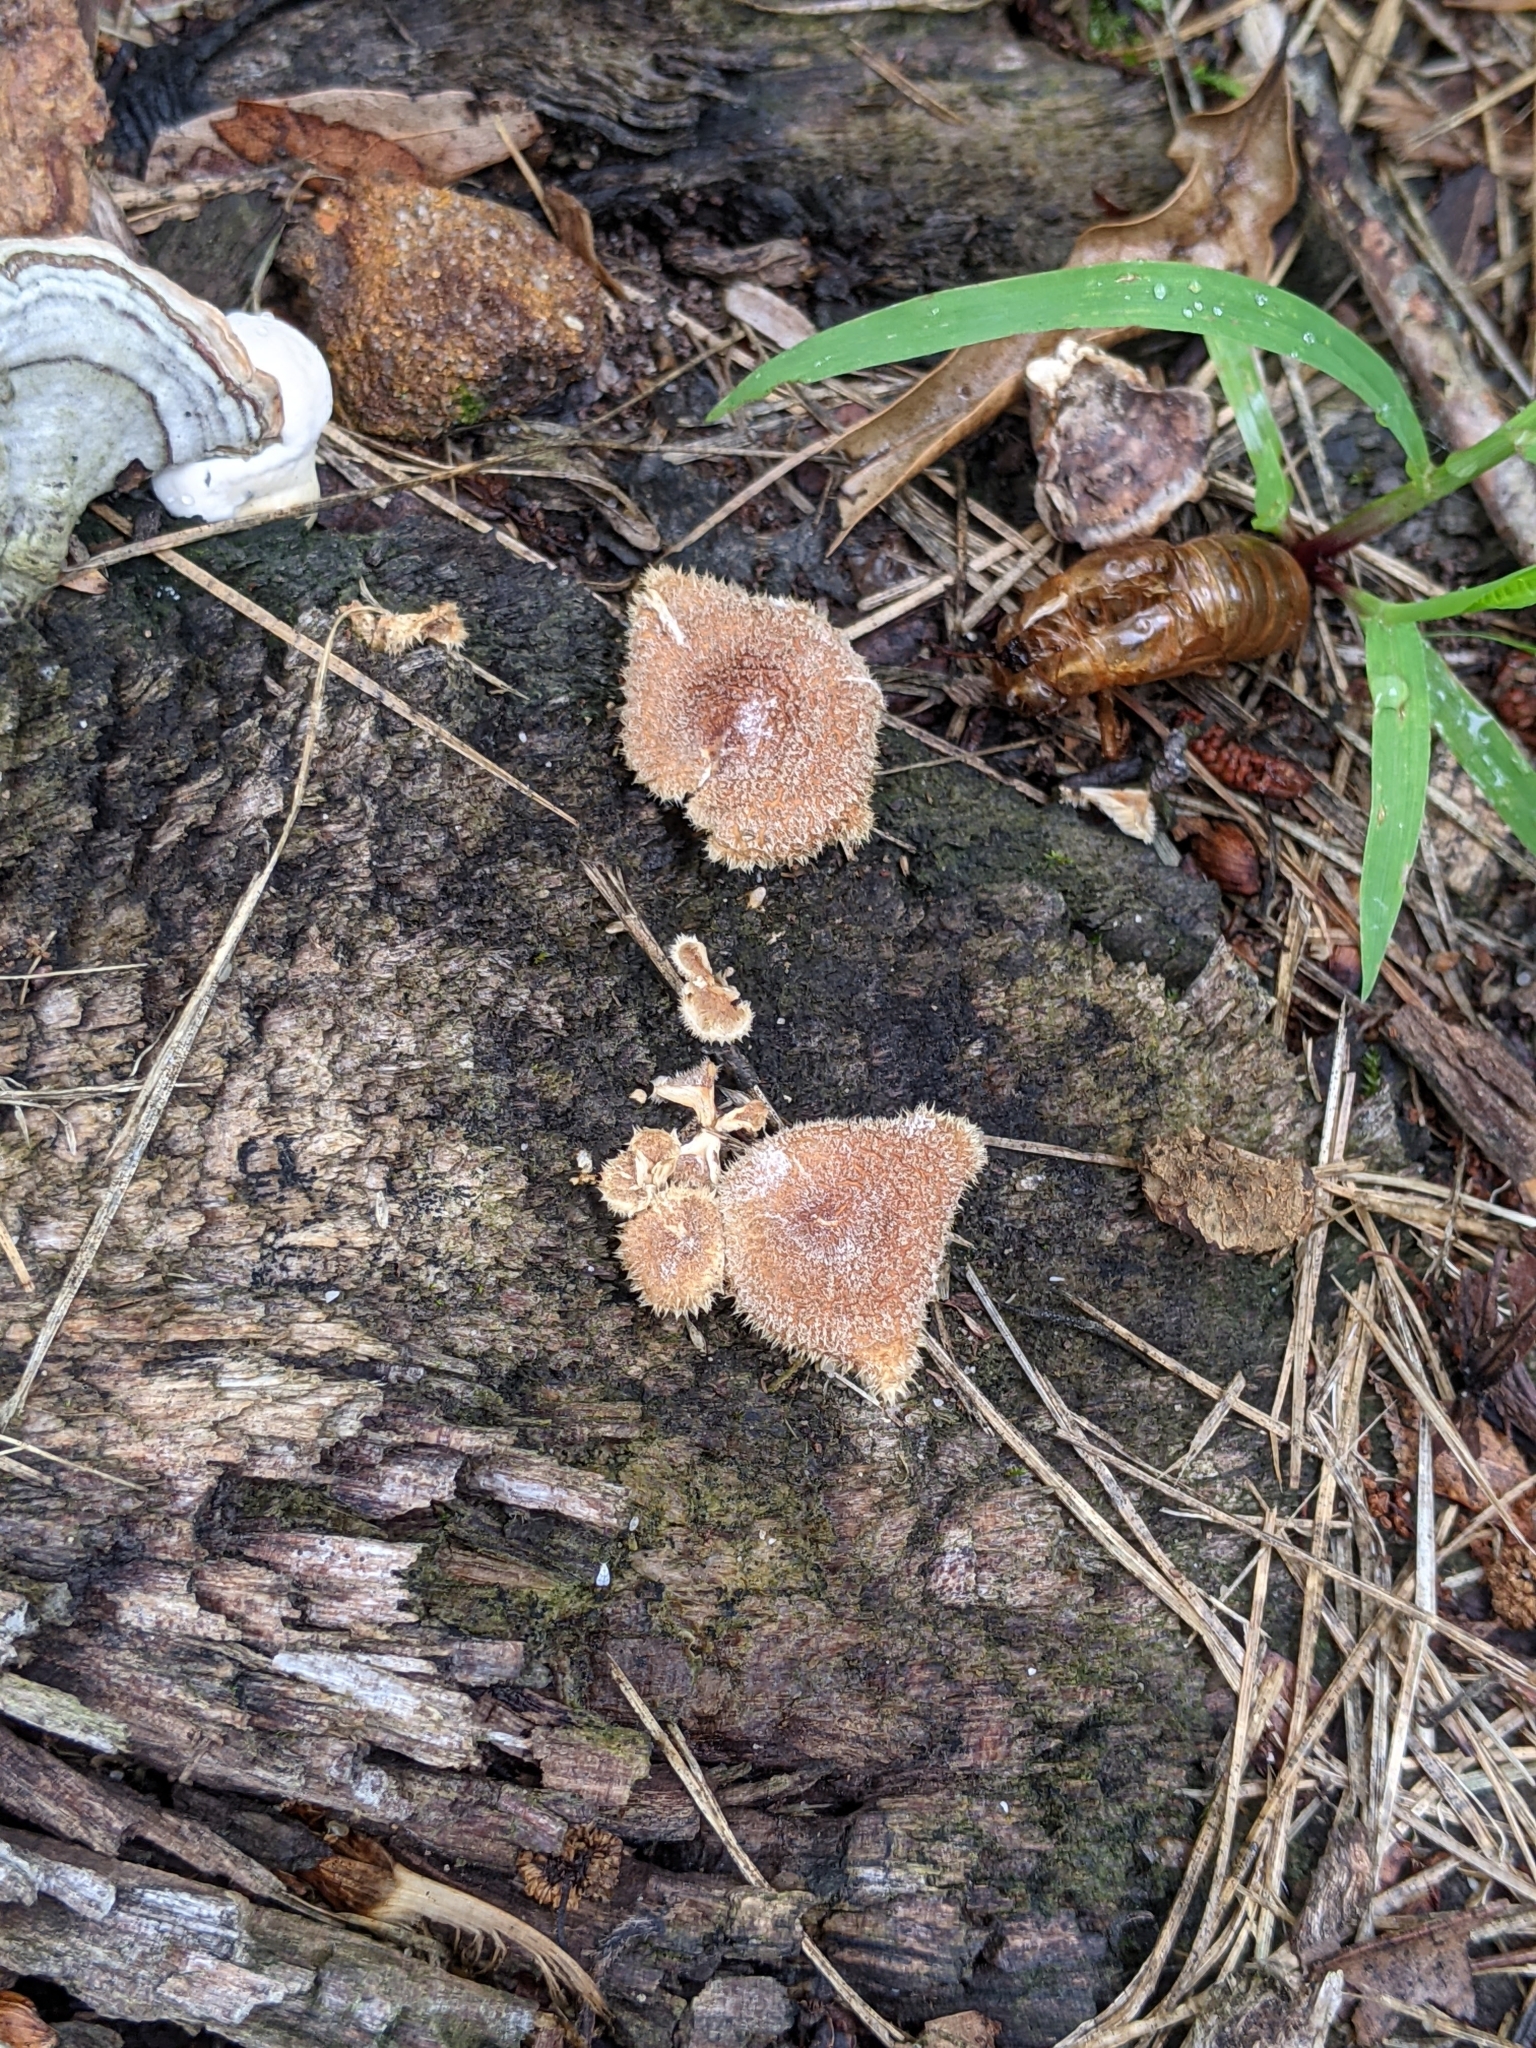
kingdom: Fungi
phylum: Basidiomycota
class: Agaricomycetes
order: Polyporales
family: Panaceae
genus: Panus
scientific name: Panus neostrigosus
